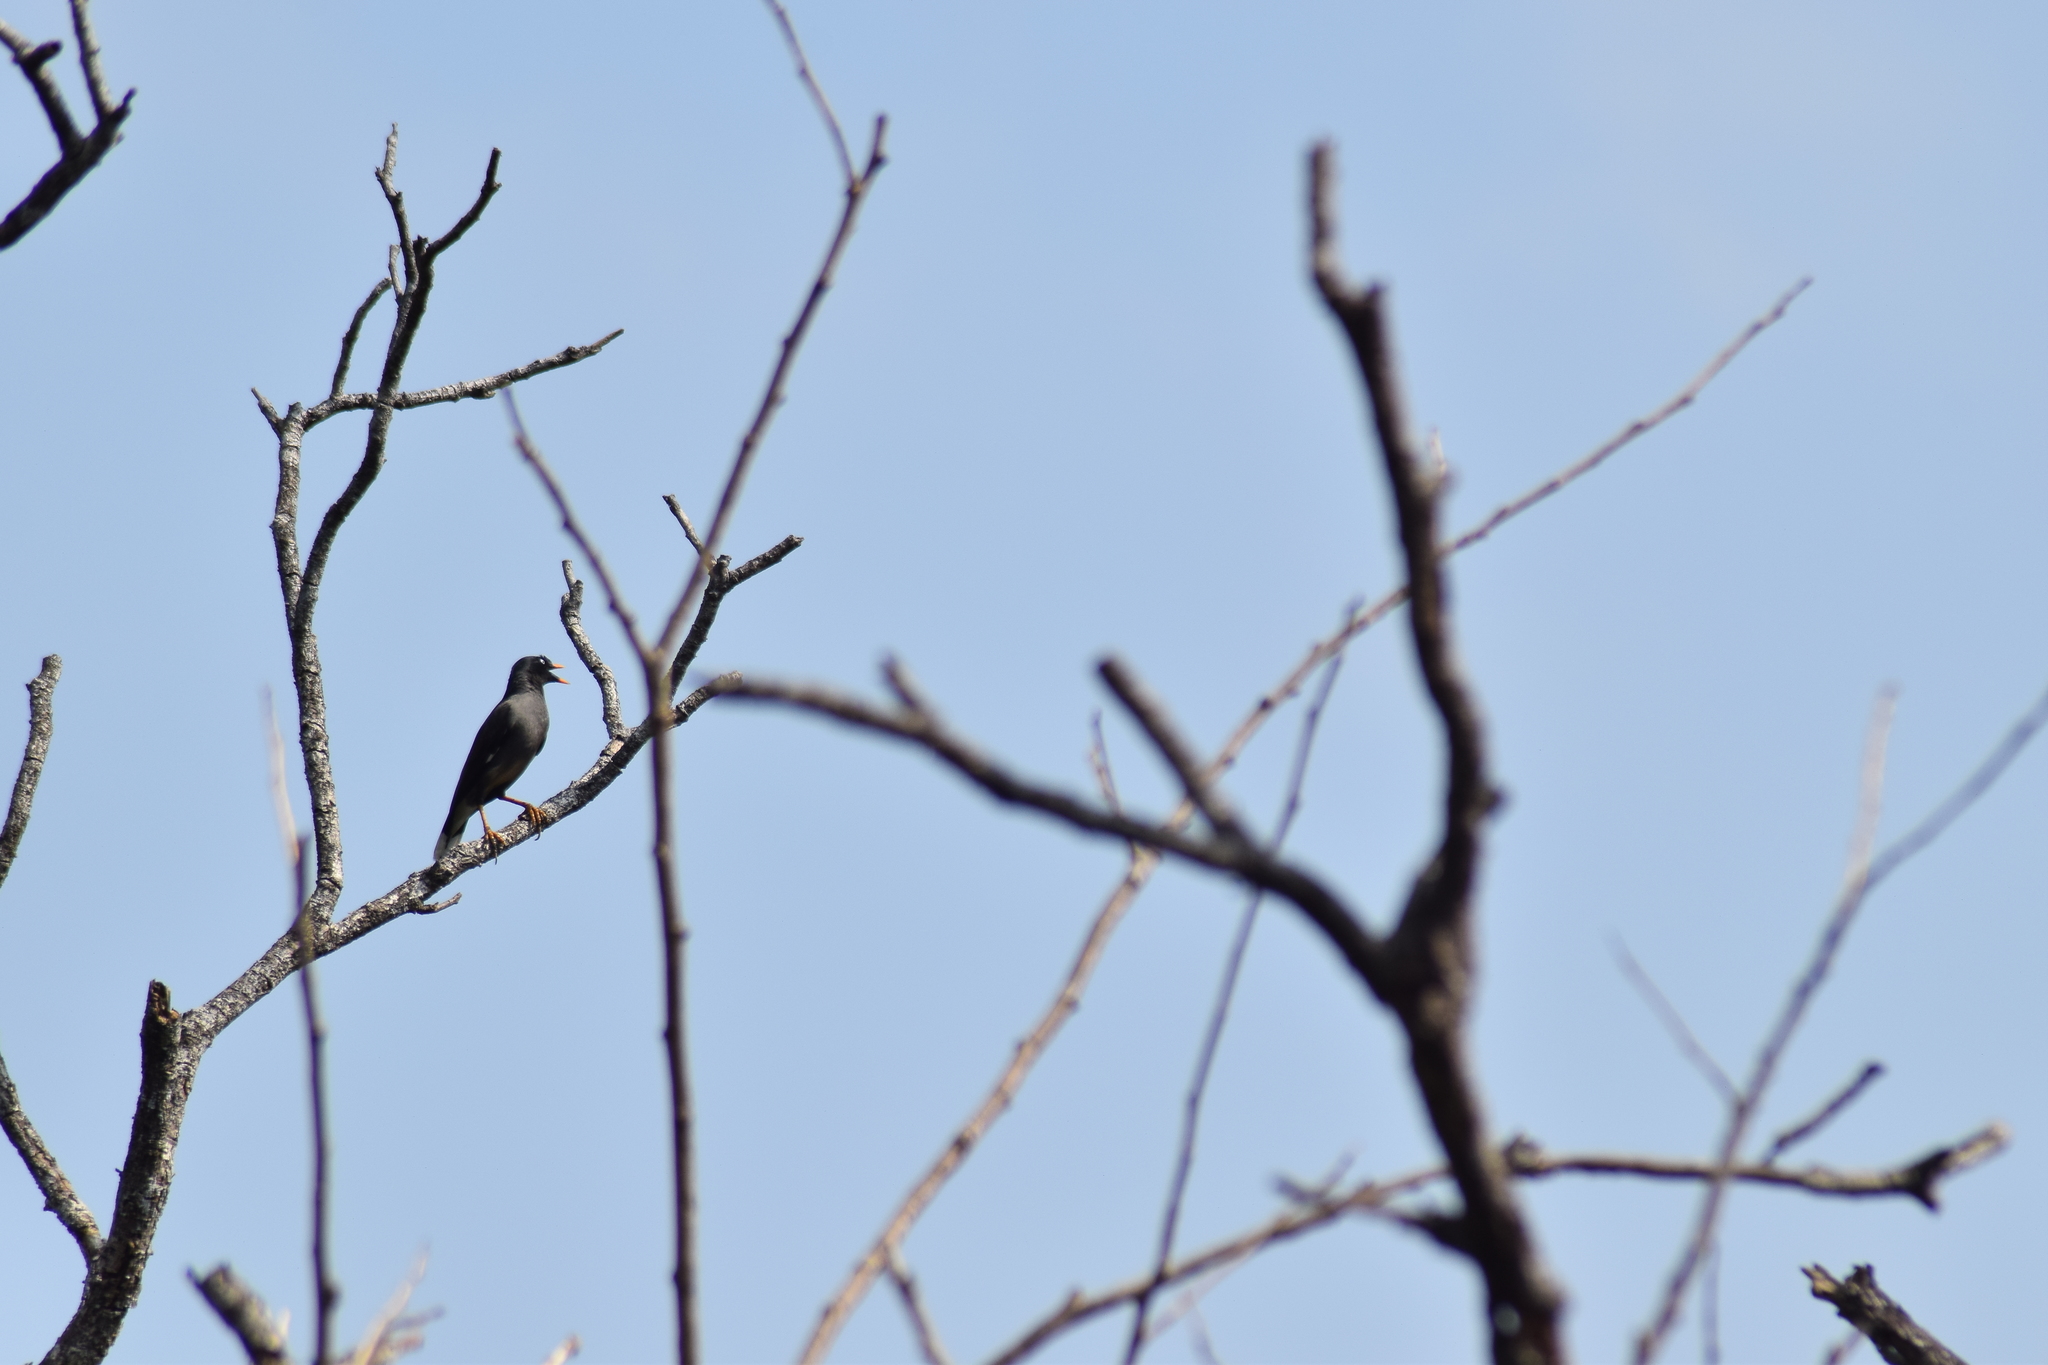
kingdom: Animalia
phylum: Chordata
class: Aves
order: Passeriformes
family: Sturnidae
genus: Acridotheres
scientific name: Acridotheres fuscus
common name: Jungle myna
